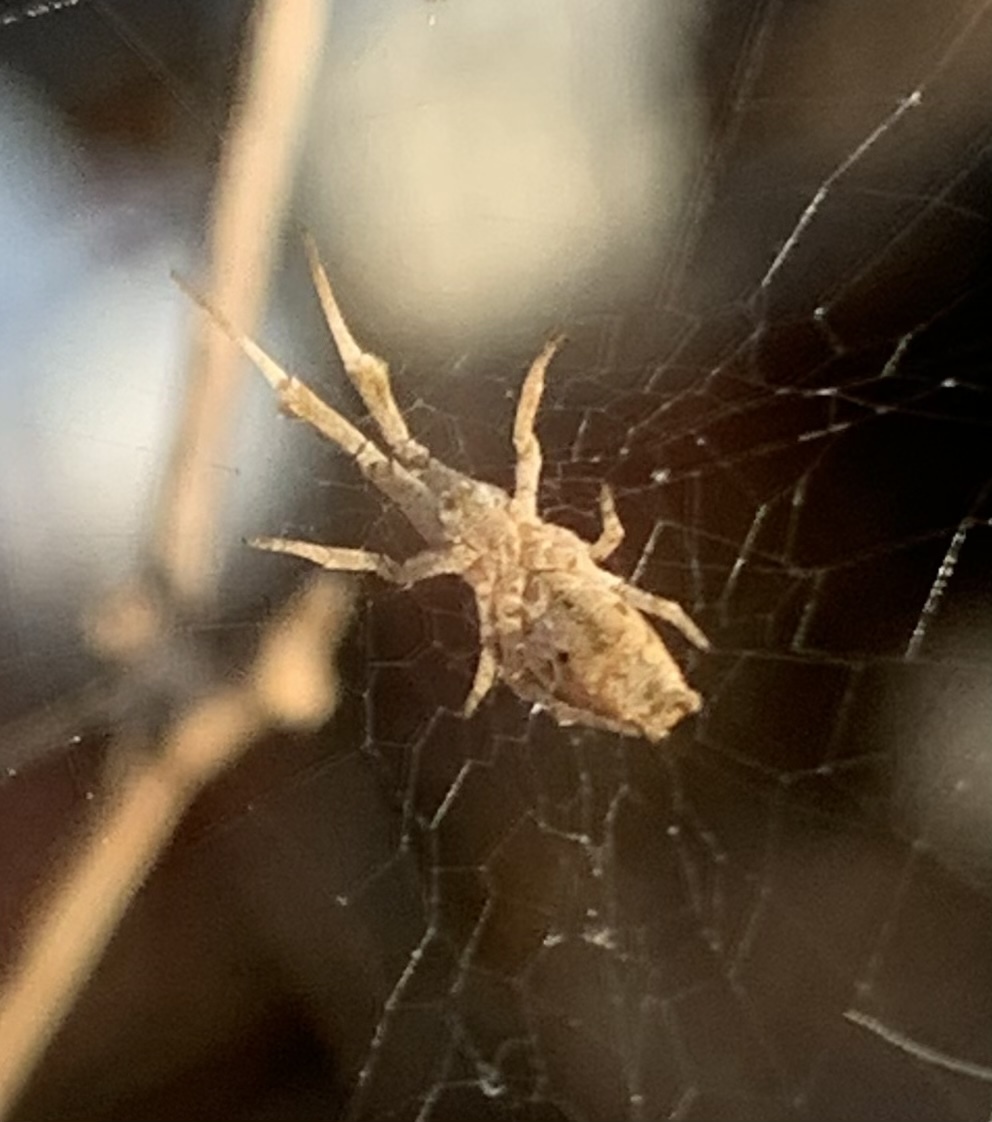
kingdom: Animalia
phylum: Arthropoda
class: Arachnida
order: Araneae
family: Uloboridae
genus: Uloborus
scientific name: Uloborus glomosus
